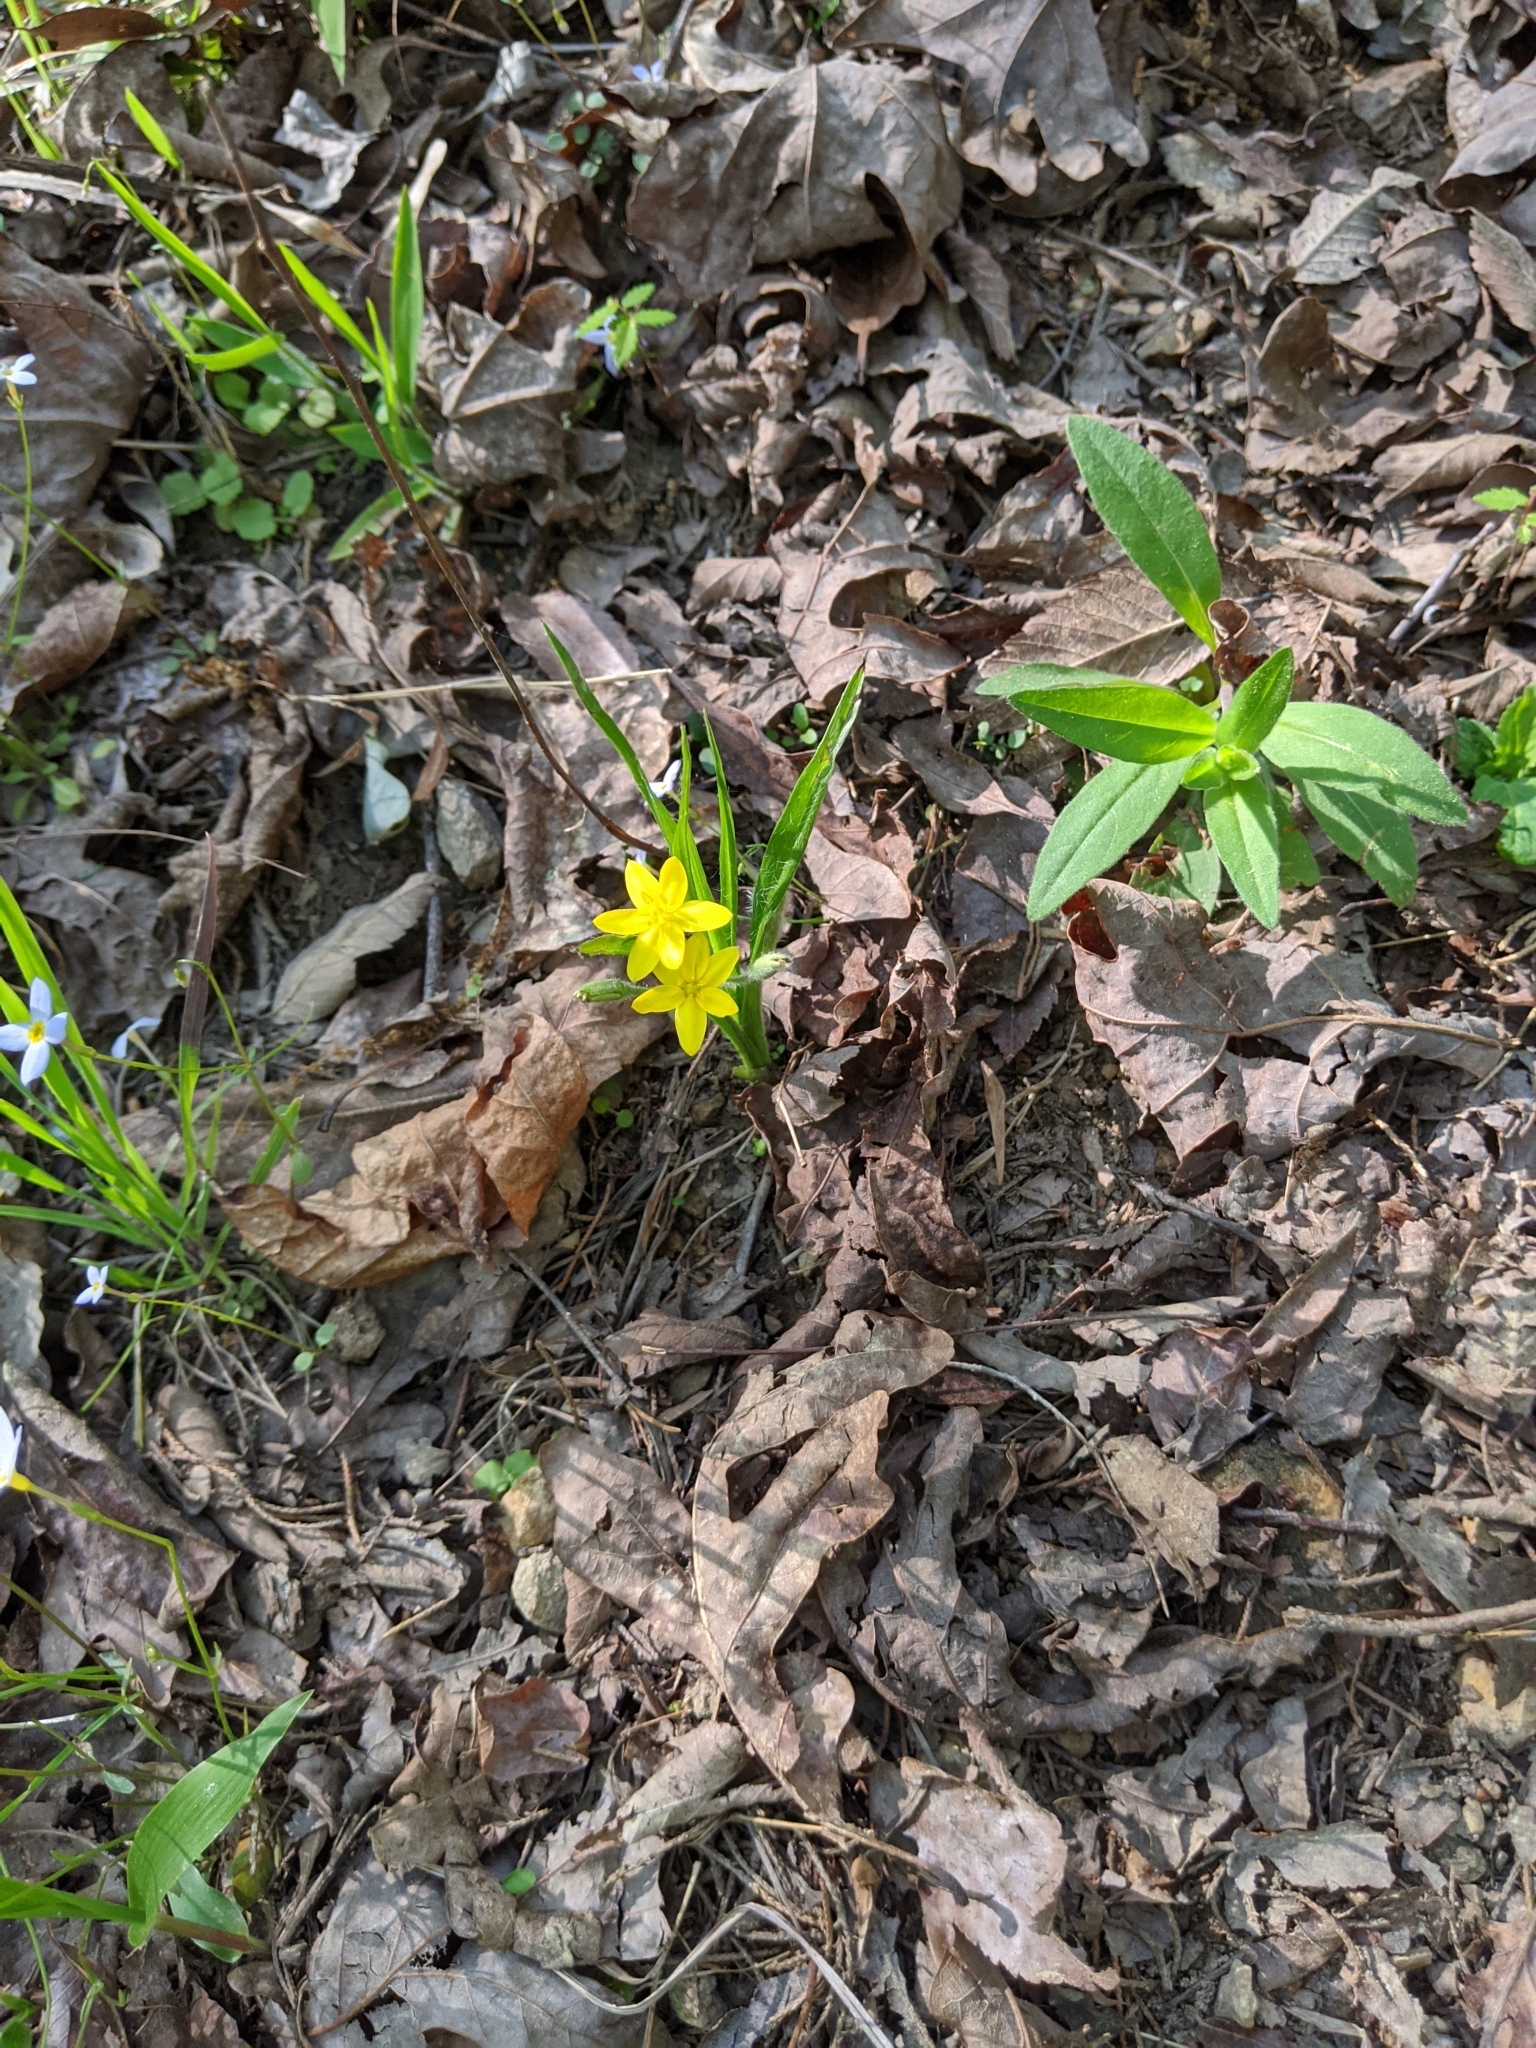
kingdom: Plantae
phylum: Tracheophyta
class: Liliopsida
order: Asparagales
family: Hypoxidaceae
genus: Hypoxis
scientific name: Hypoxis hirsuta
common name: Common goldstar
